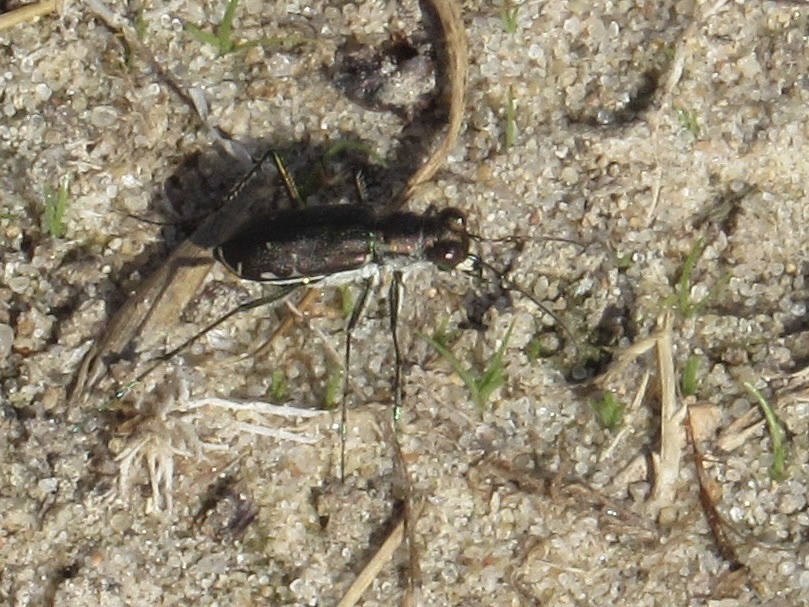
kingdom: Animalia
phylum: Arthropoda
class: Insecta
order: Coleoptera
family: Carabidae
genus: Cicindela
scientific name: Cicindela punctulata
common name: Punctured tiger beetle
